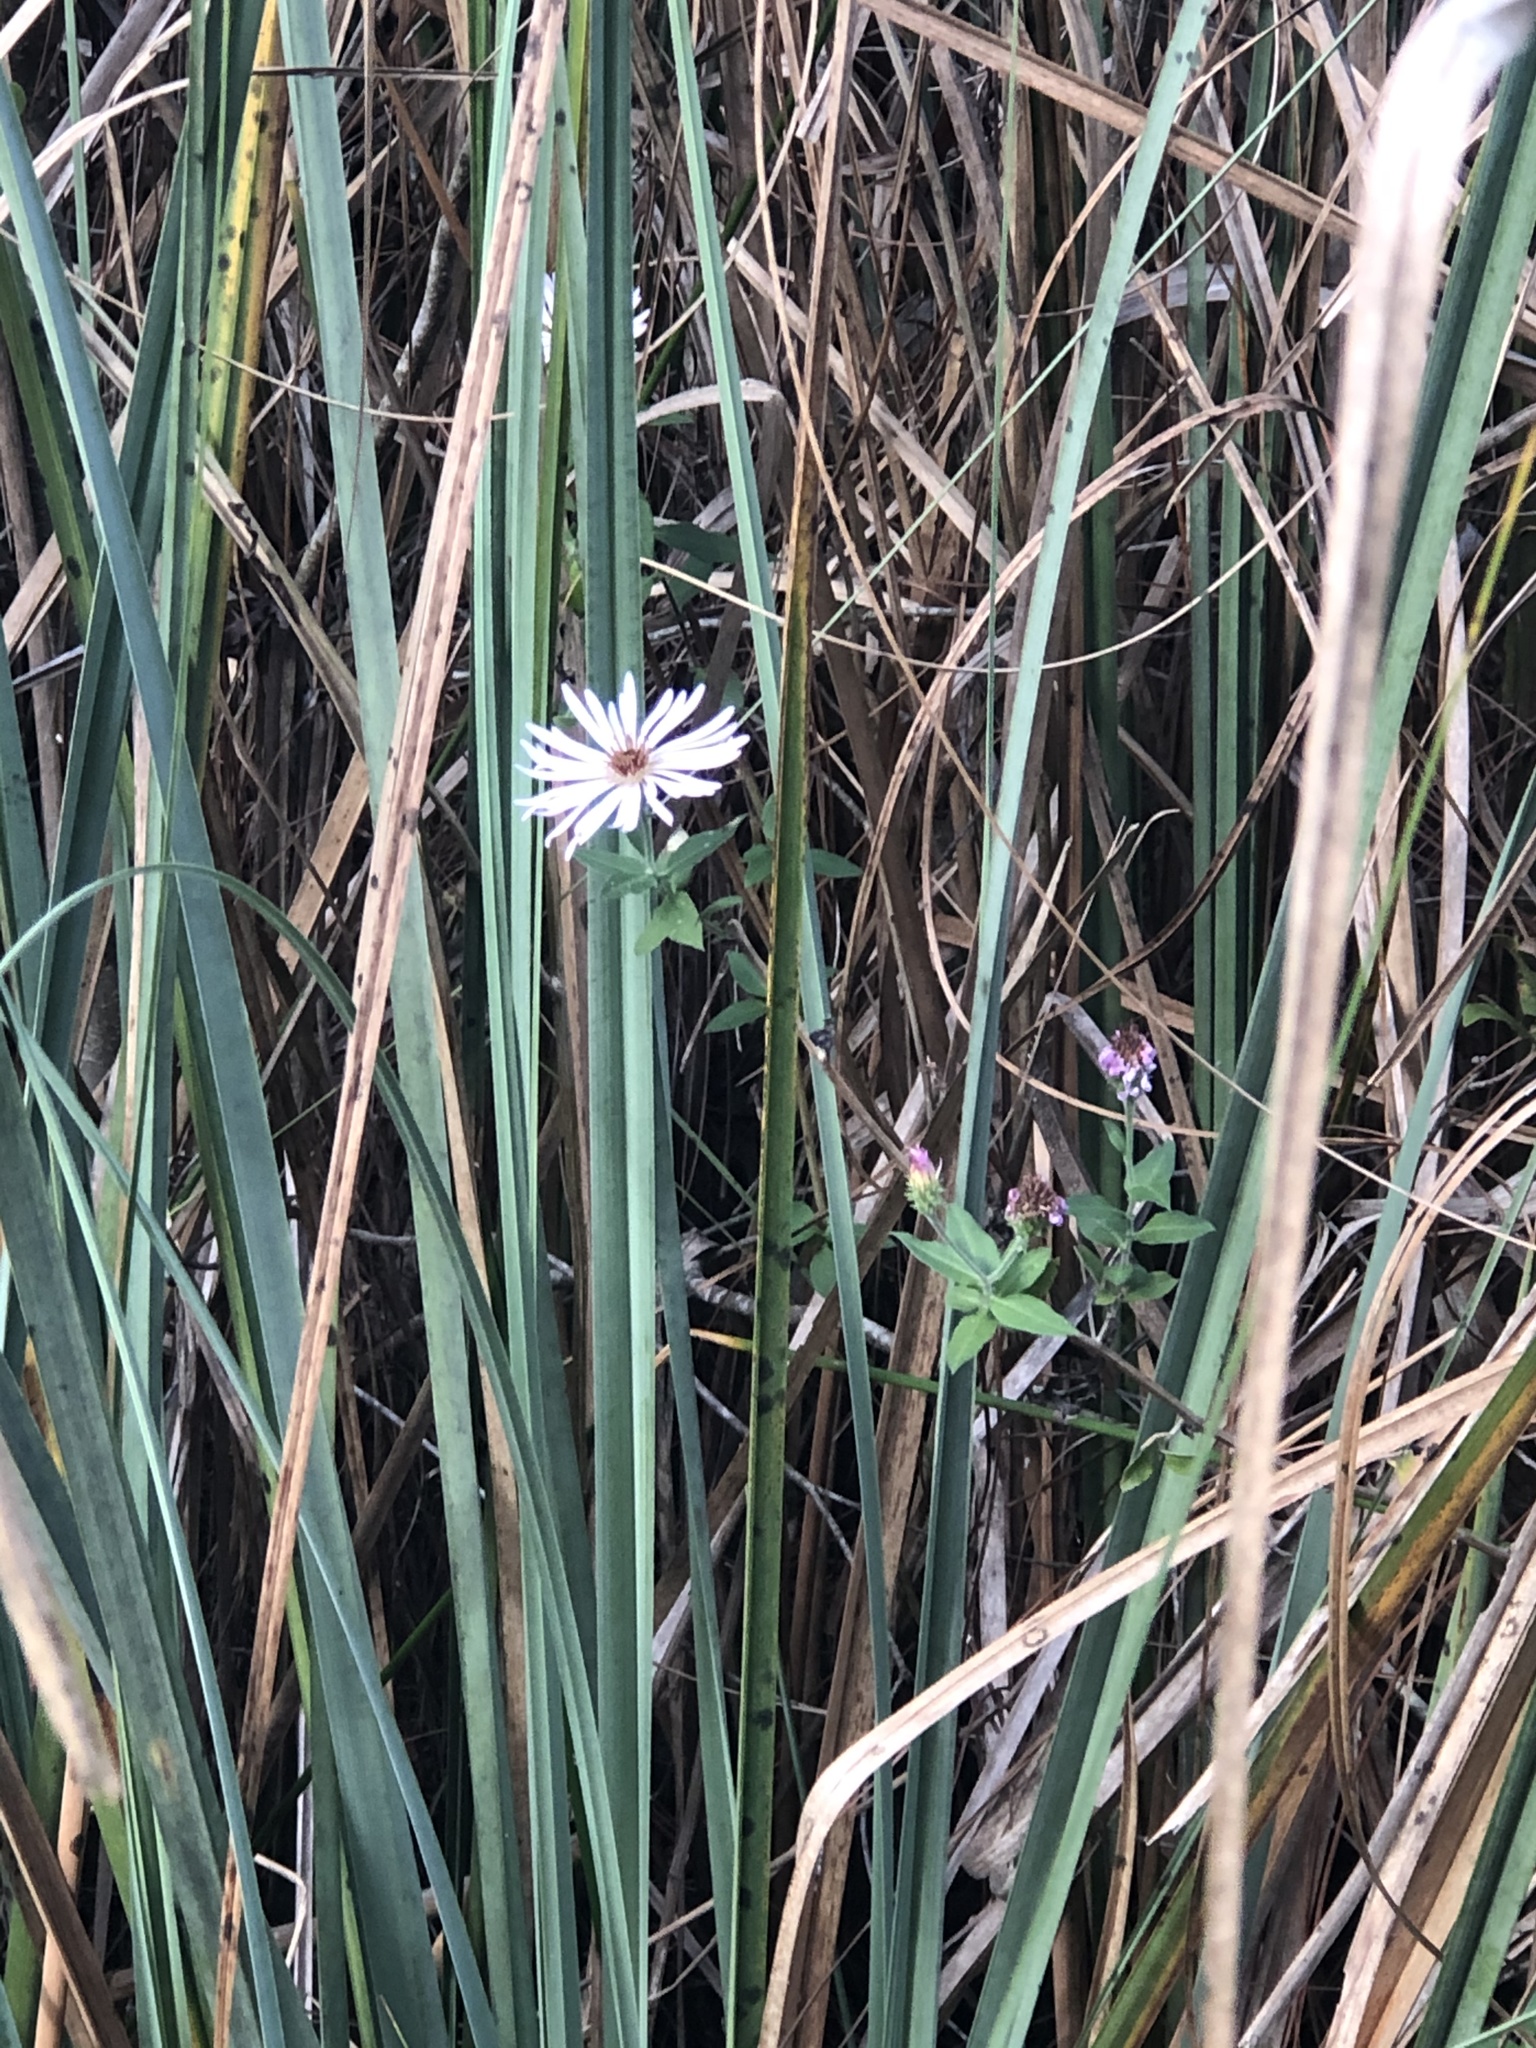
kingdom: Plantae
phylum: Tracheophyta
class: Magnoliopsida
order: Asterales
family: Asteraceae
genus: Ampelaster
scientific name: Ampelaster carolinianus
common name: Climbing aster
